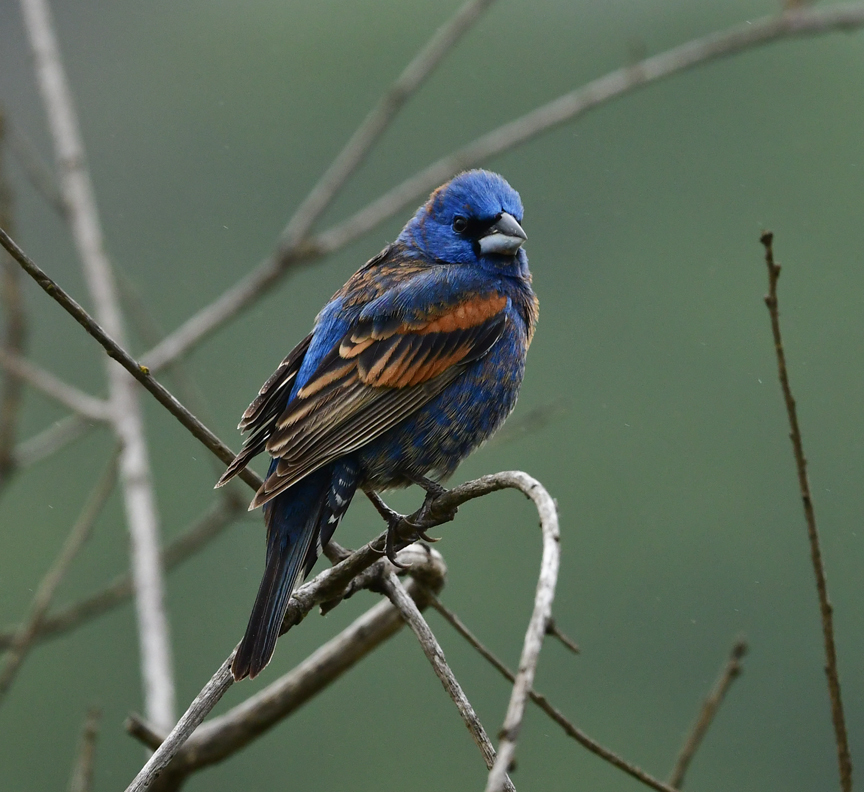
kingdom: Animalia
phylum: Chordata
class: Aves
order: Passeriformes
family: Cardinalidae
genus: Passerina
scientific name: Passerina caerulea
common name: Blue grosbeak
